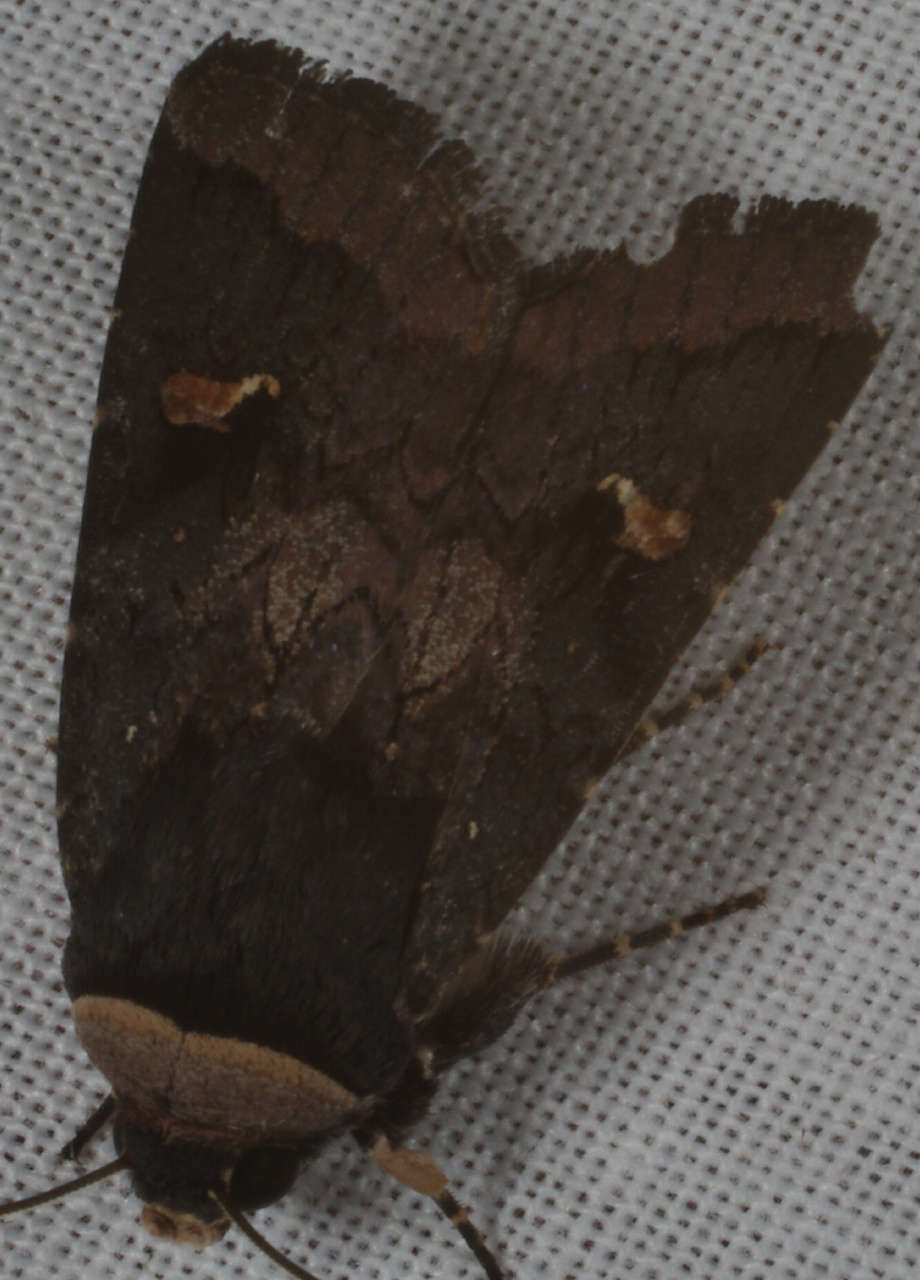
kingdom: Animalia
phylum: Arthropoda
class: Insecta
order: Lepidoptera
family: Noctuidae
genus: Proteuxoa
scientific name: Proteuxoa cinereicollis
